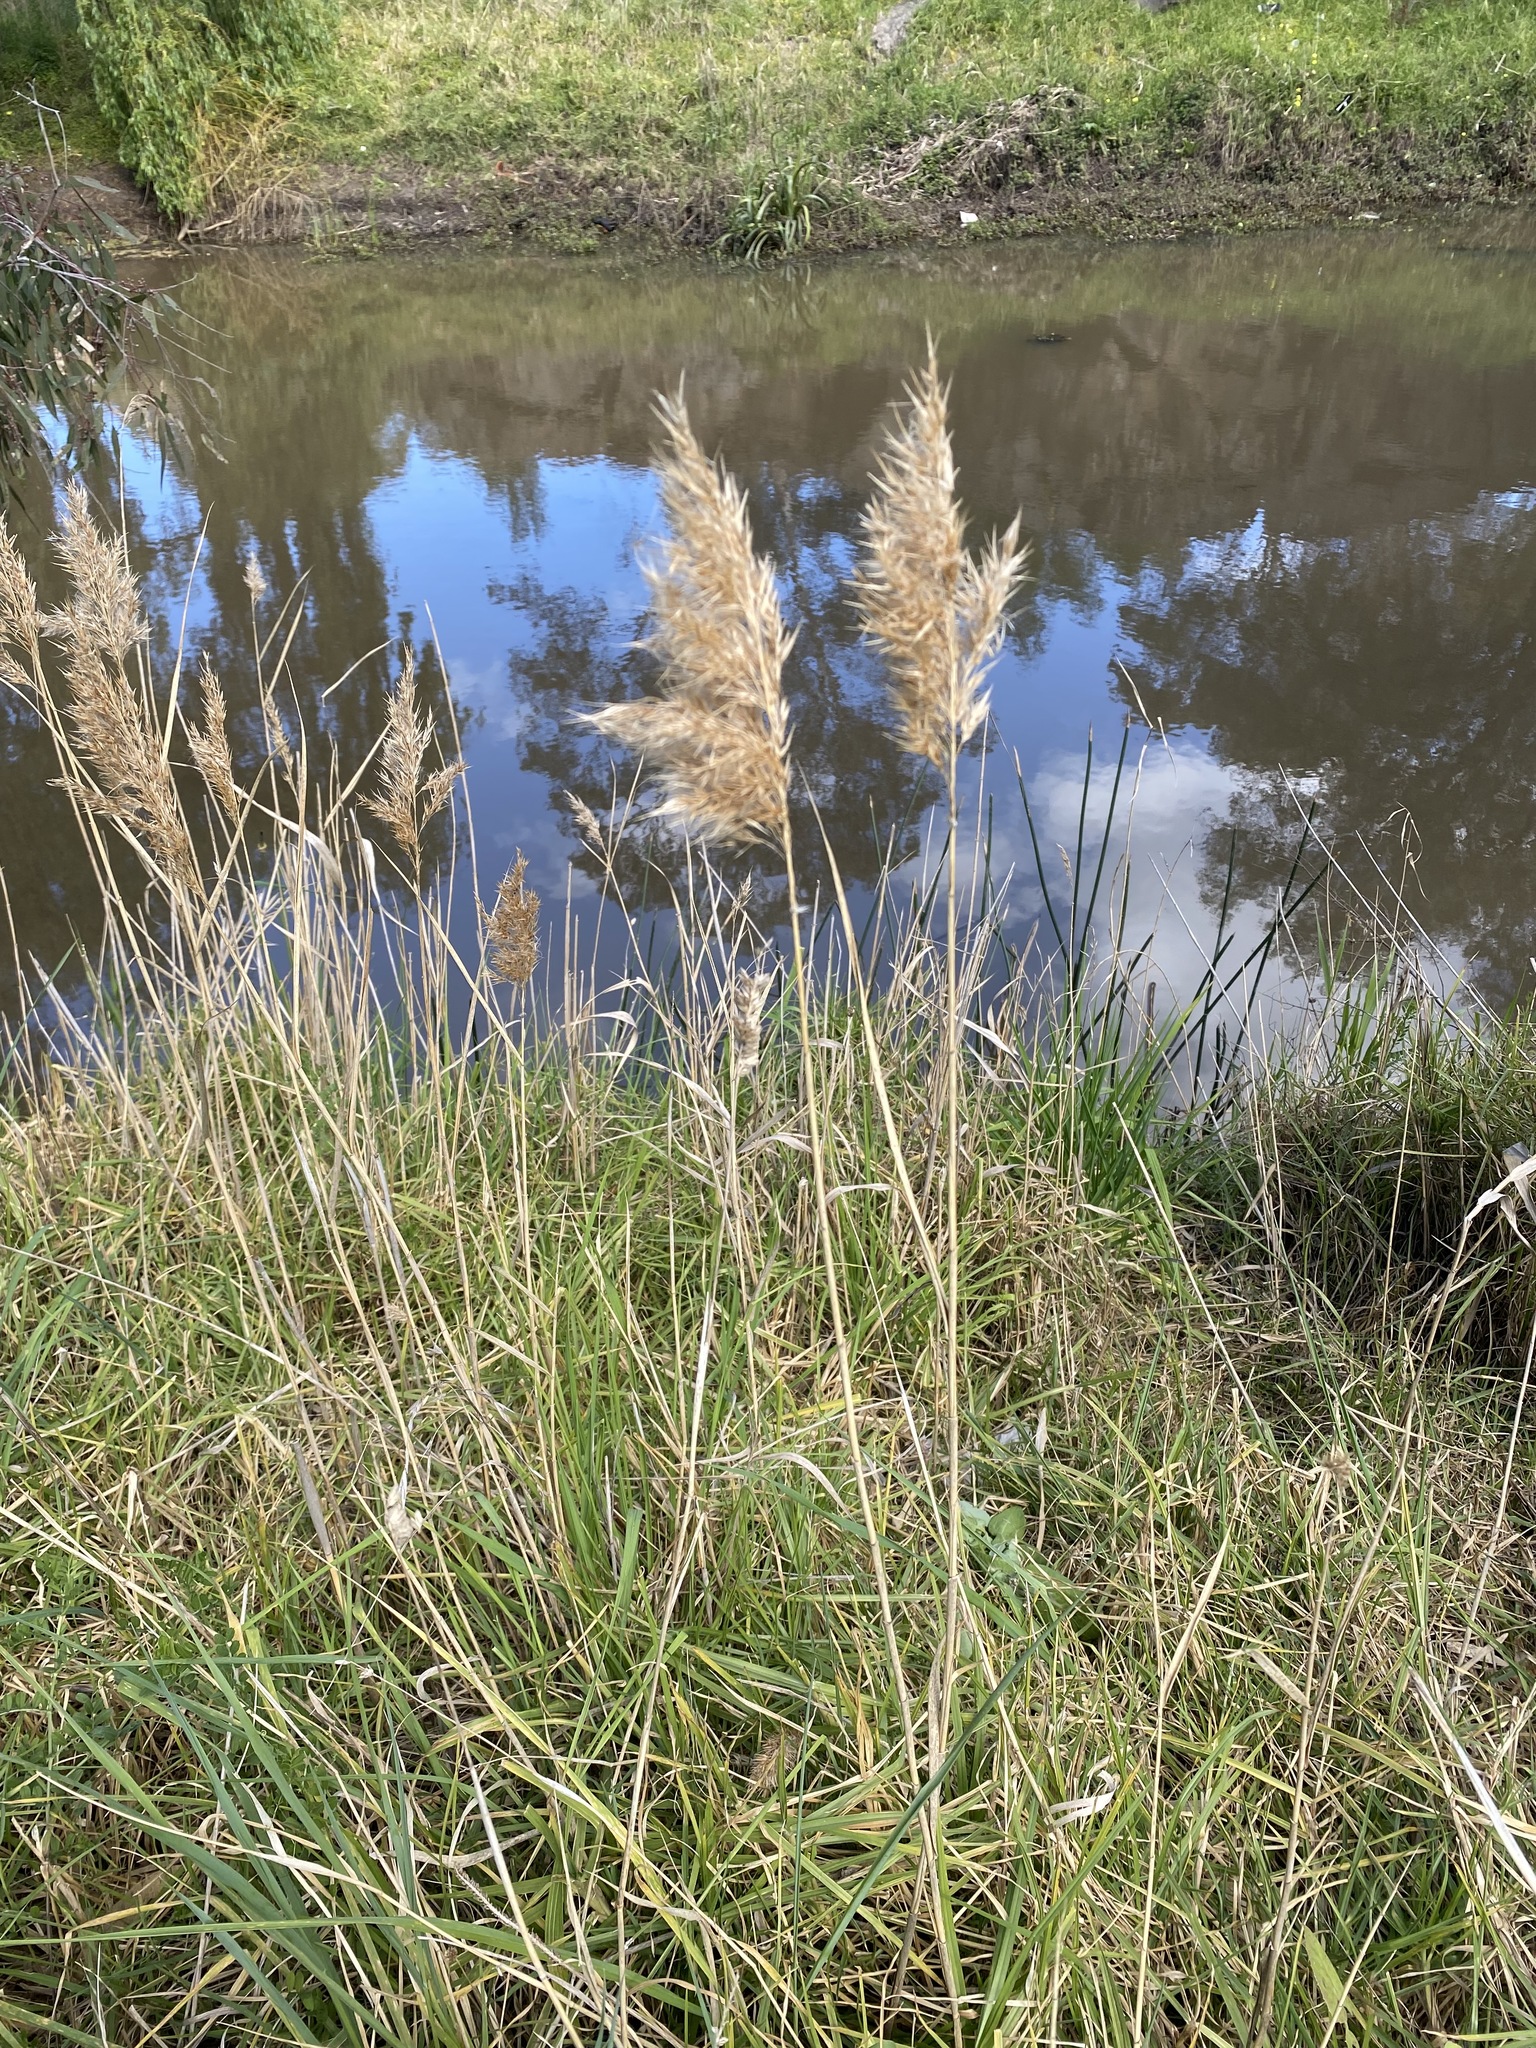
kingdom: Plantae
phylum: Tracheophyta
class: Liliopsida
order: Poales
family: Poaceae
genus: Phragmites
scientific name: Phragmites australis
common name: Common reed
